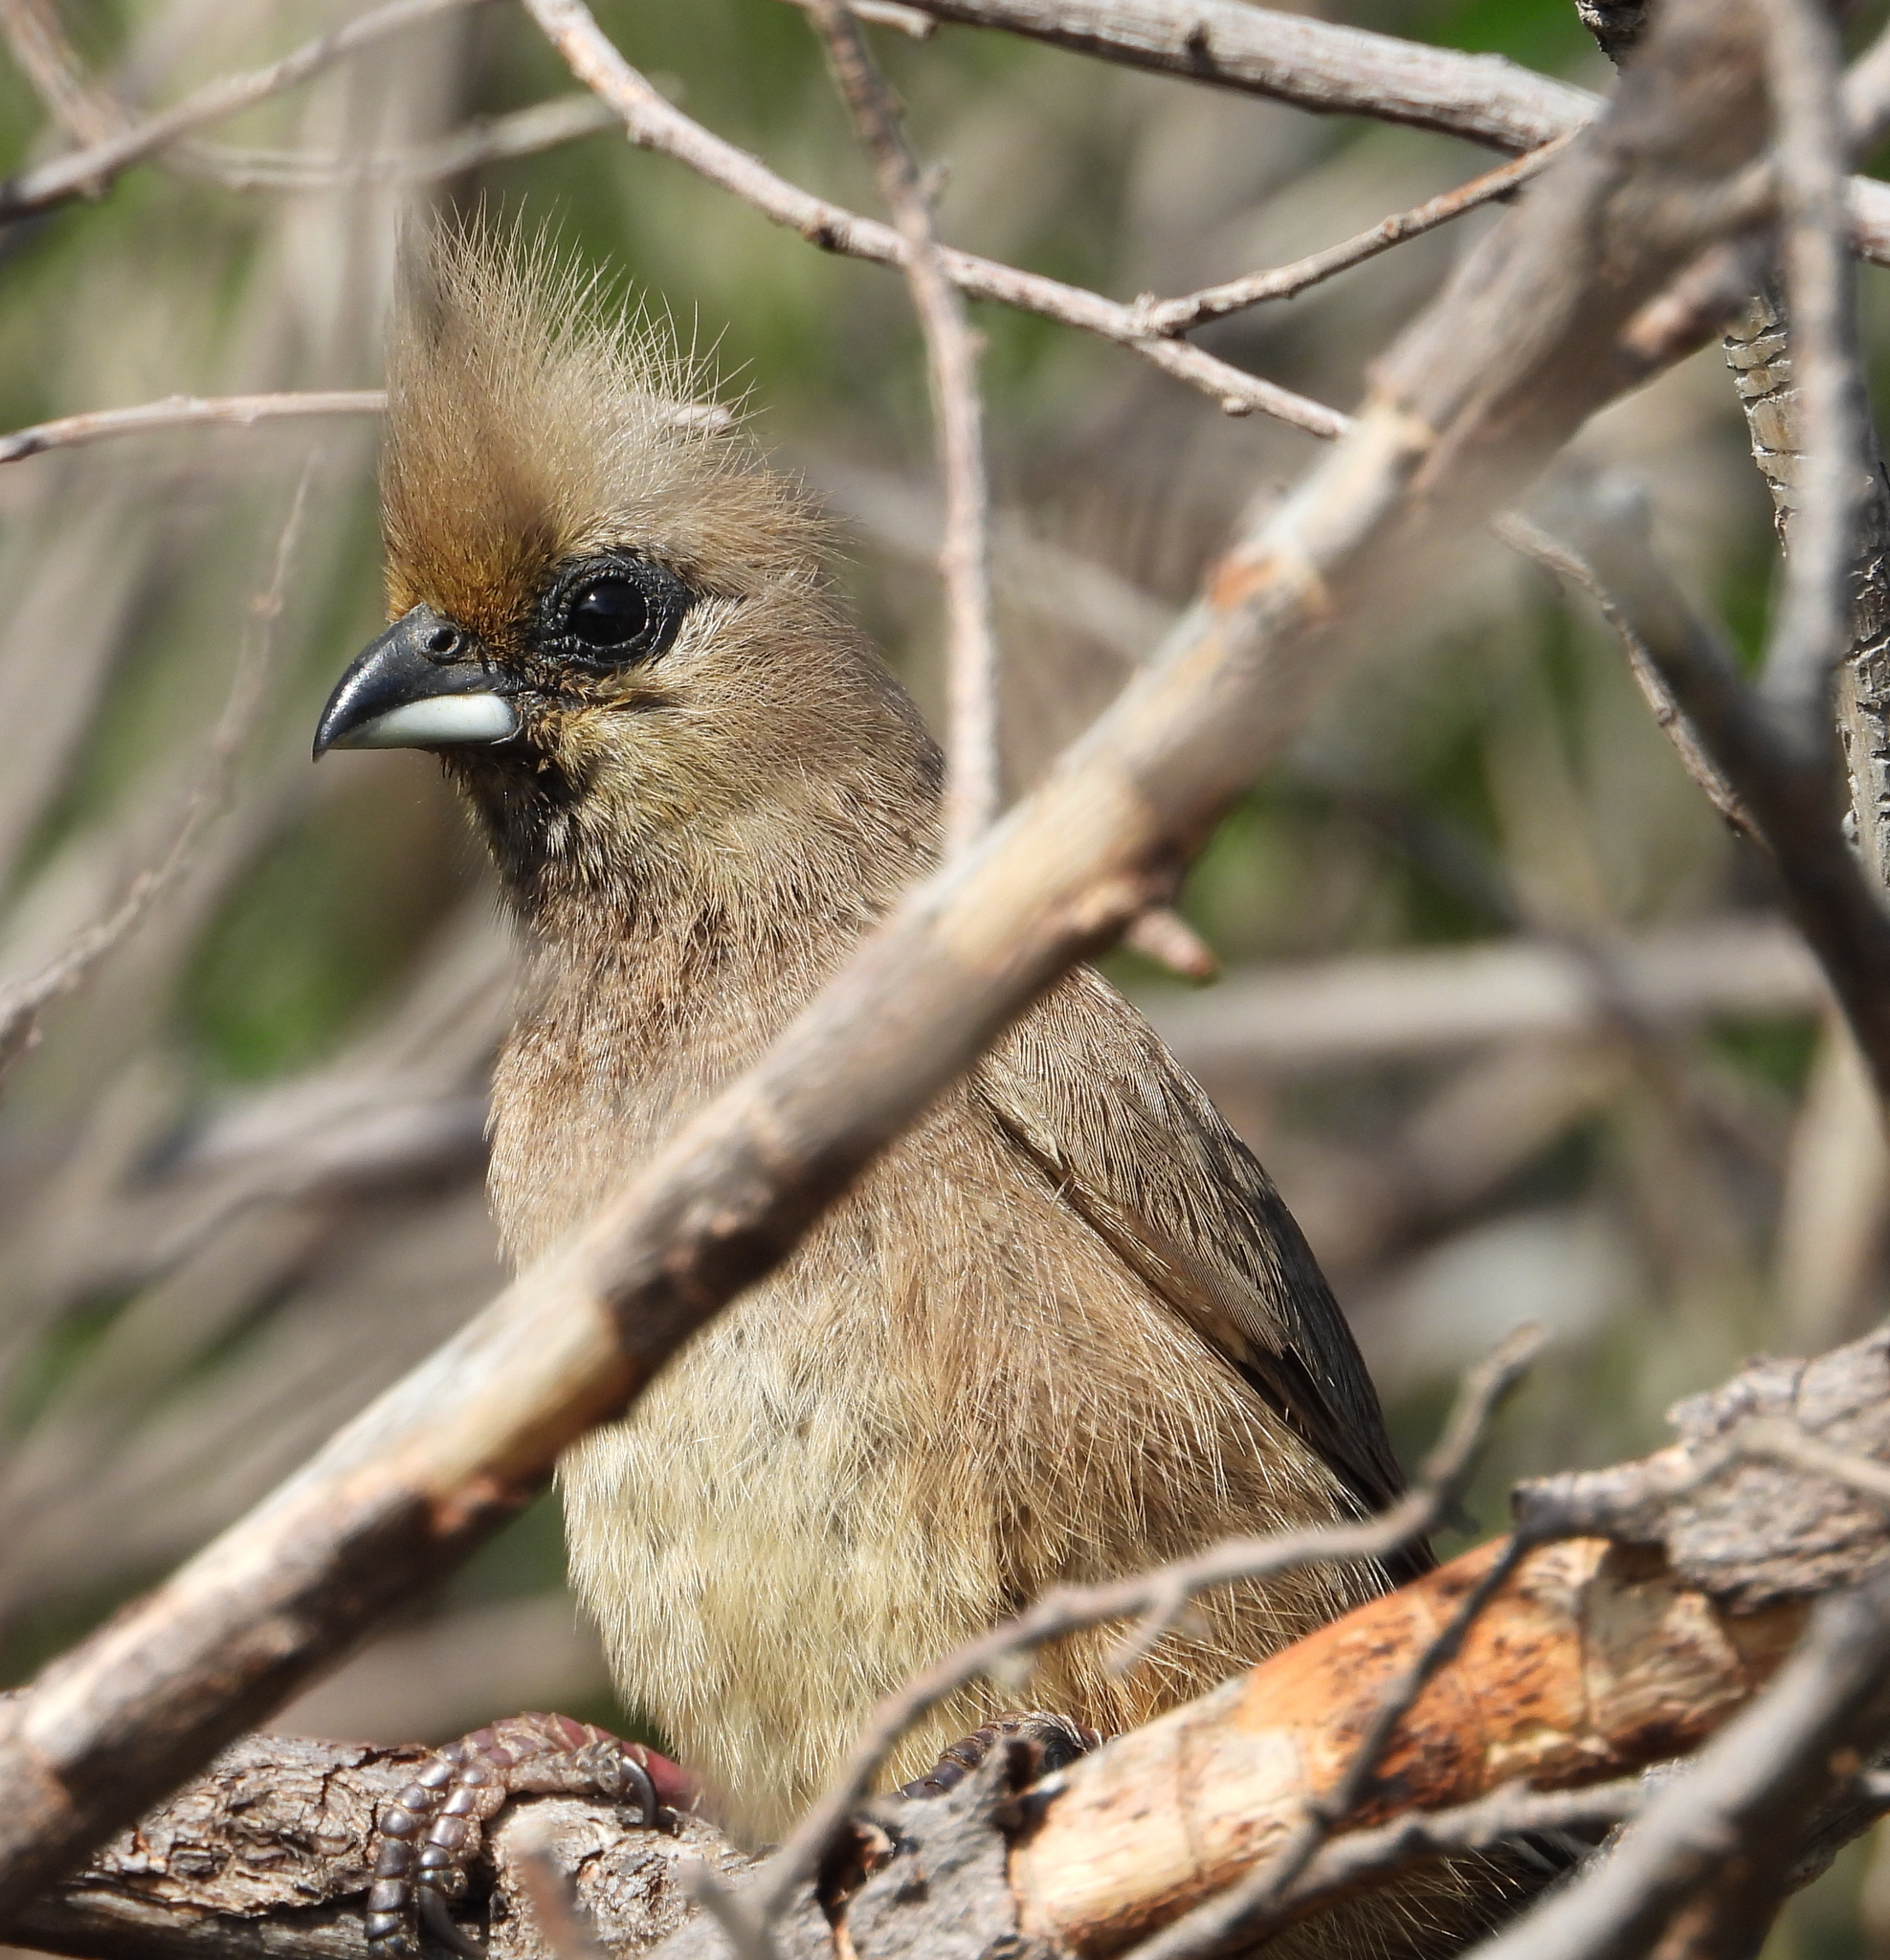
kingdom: Animalia
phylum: Chordata
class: Aves
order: Coliiformes
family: Coliidae
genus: Colius
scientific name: Colius striatus
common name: Speckled mousebird
